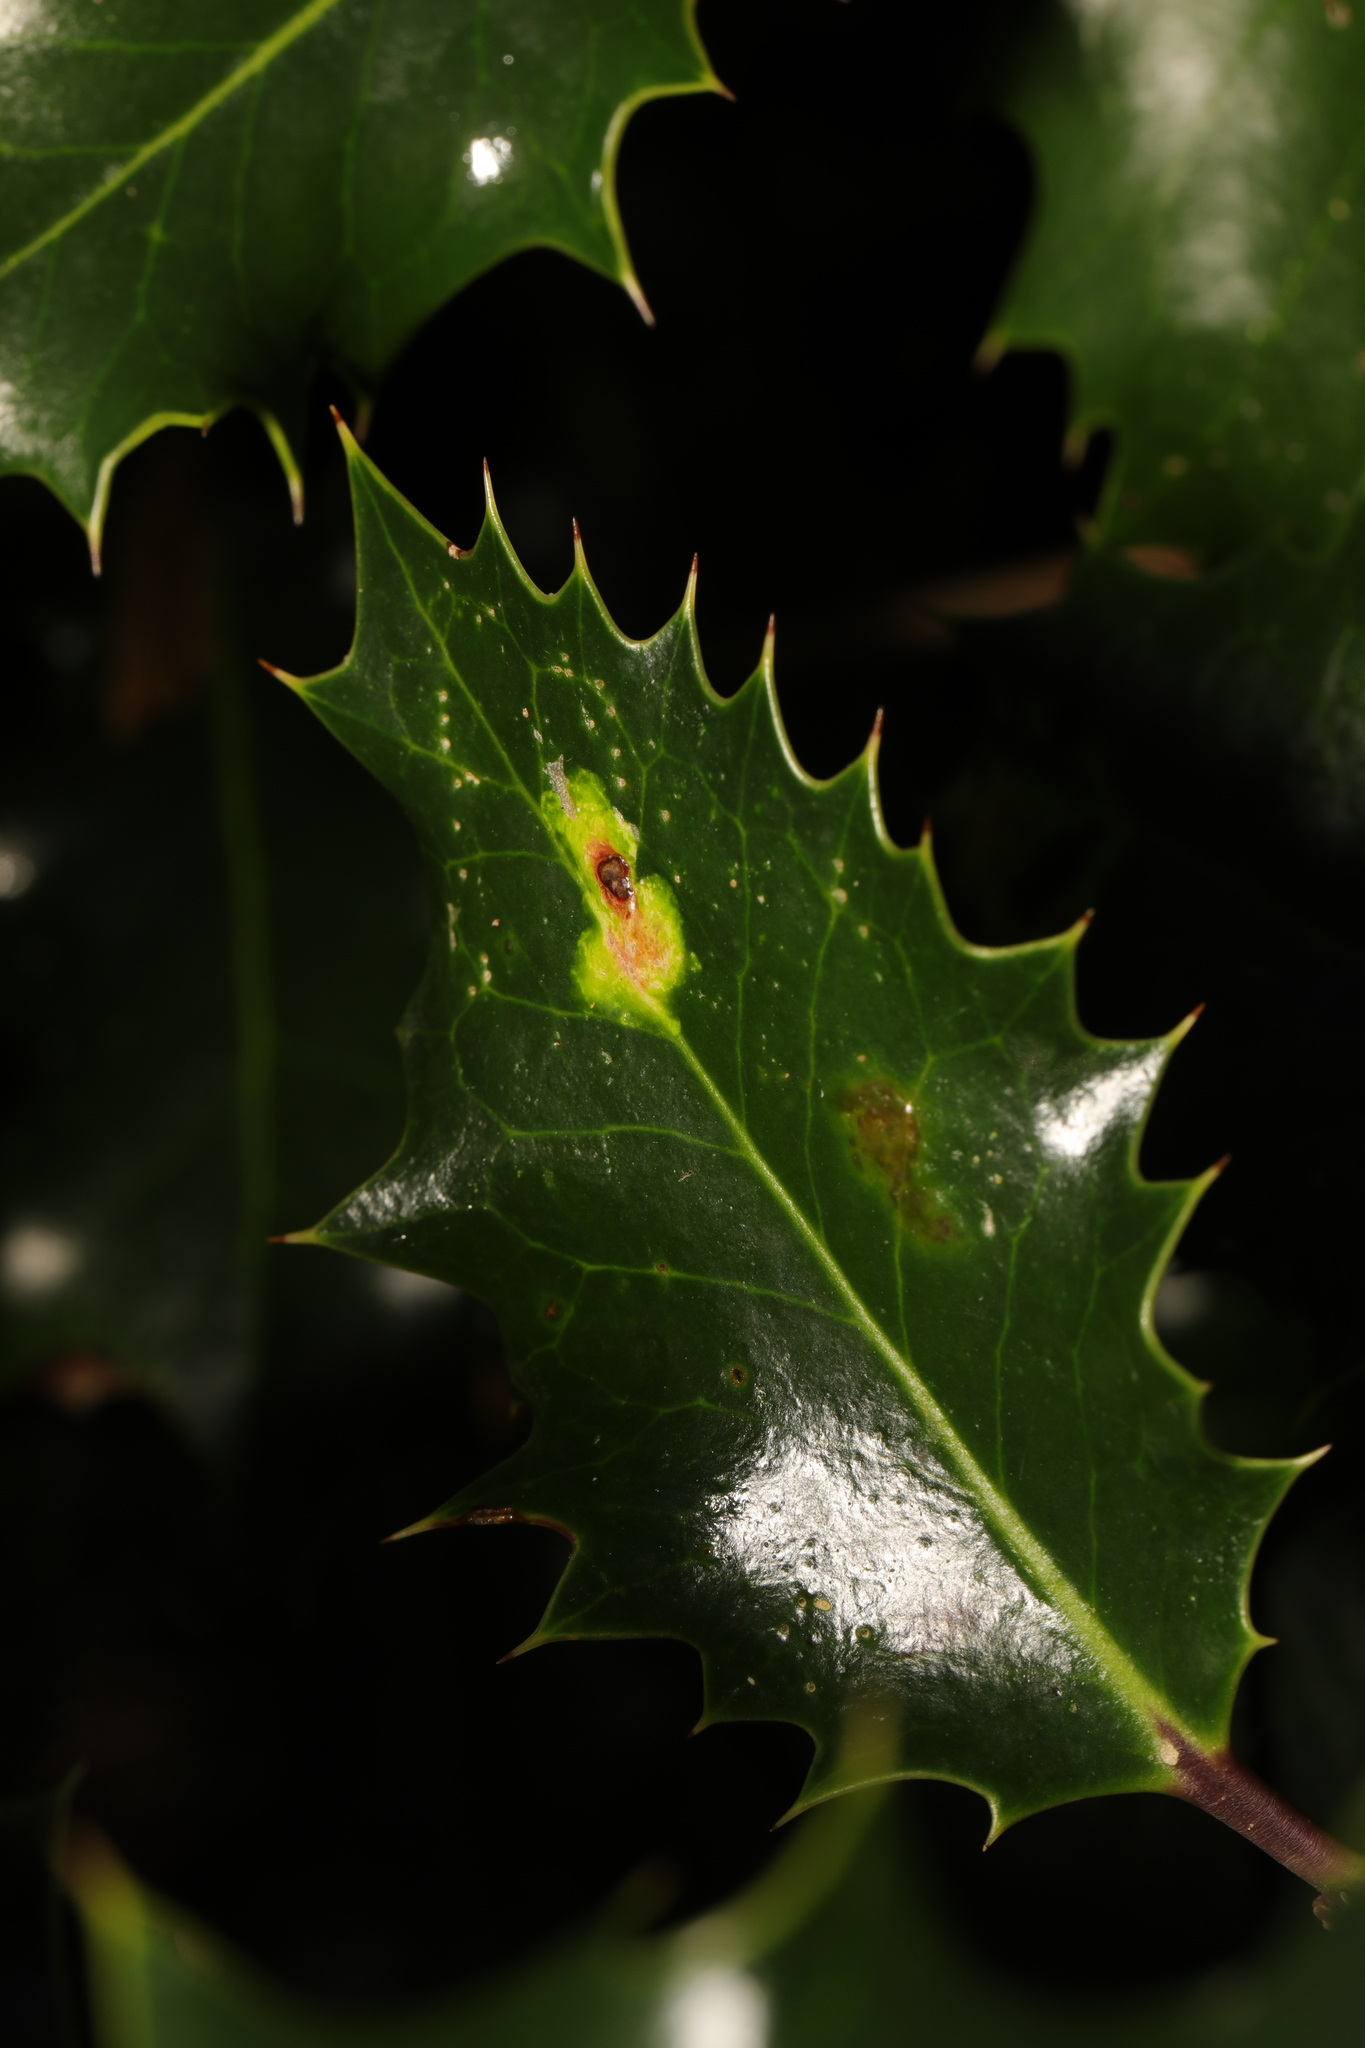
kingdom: Animalia
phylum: Arthropoda
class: Insecta
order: Diptera
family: Agromyzidae
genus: Phytomyza
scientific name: Phytomyza ilicis
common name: Holly leafminer
